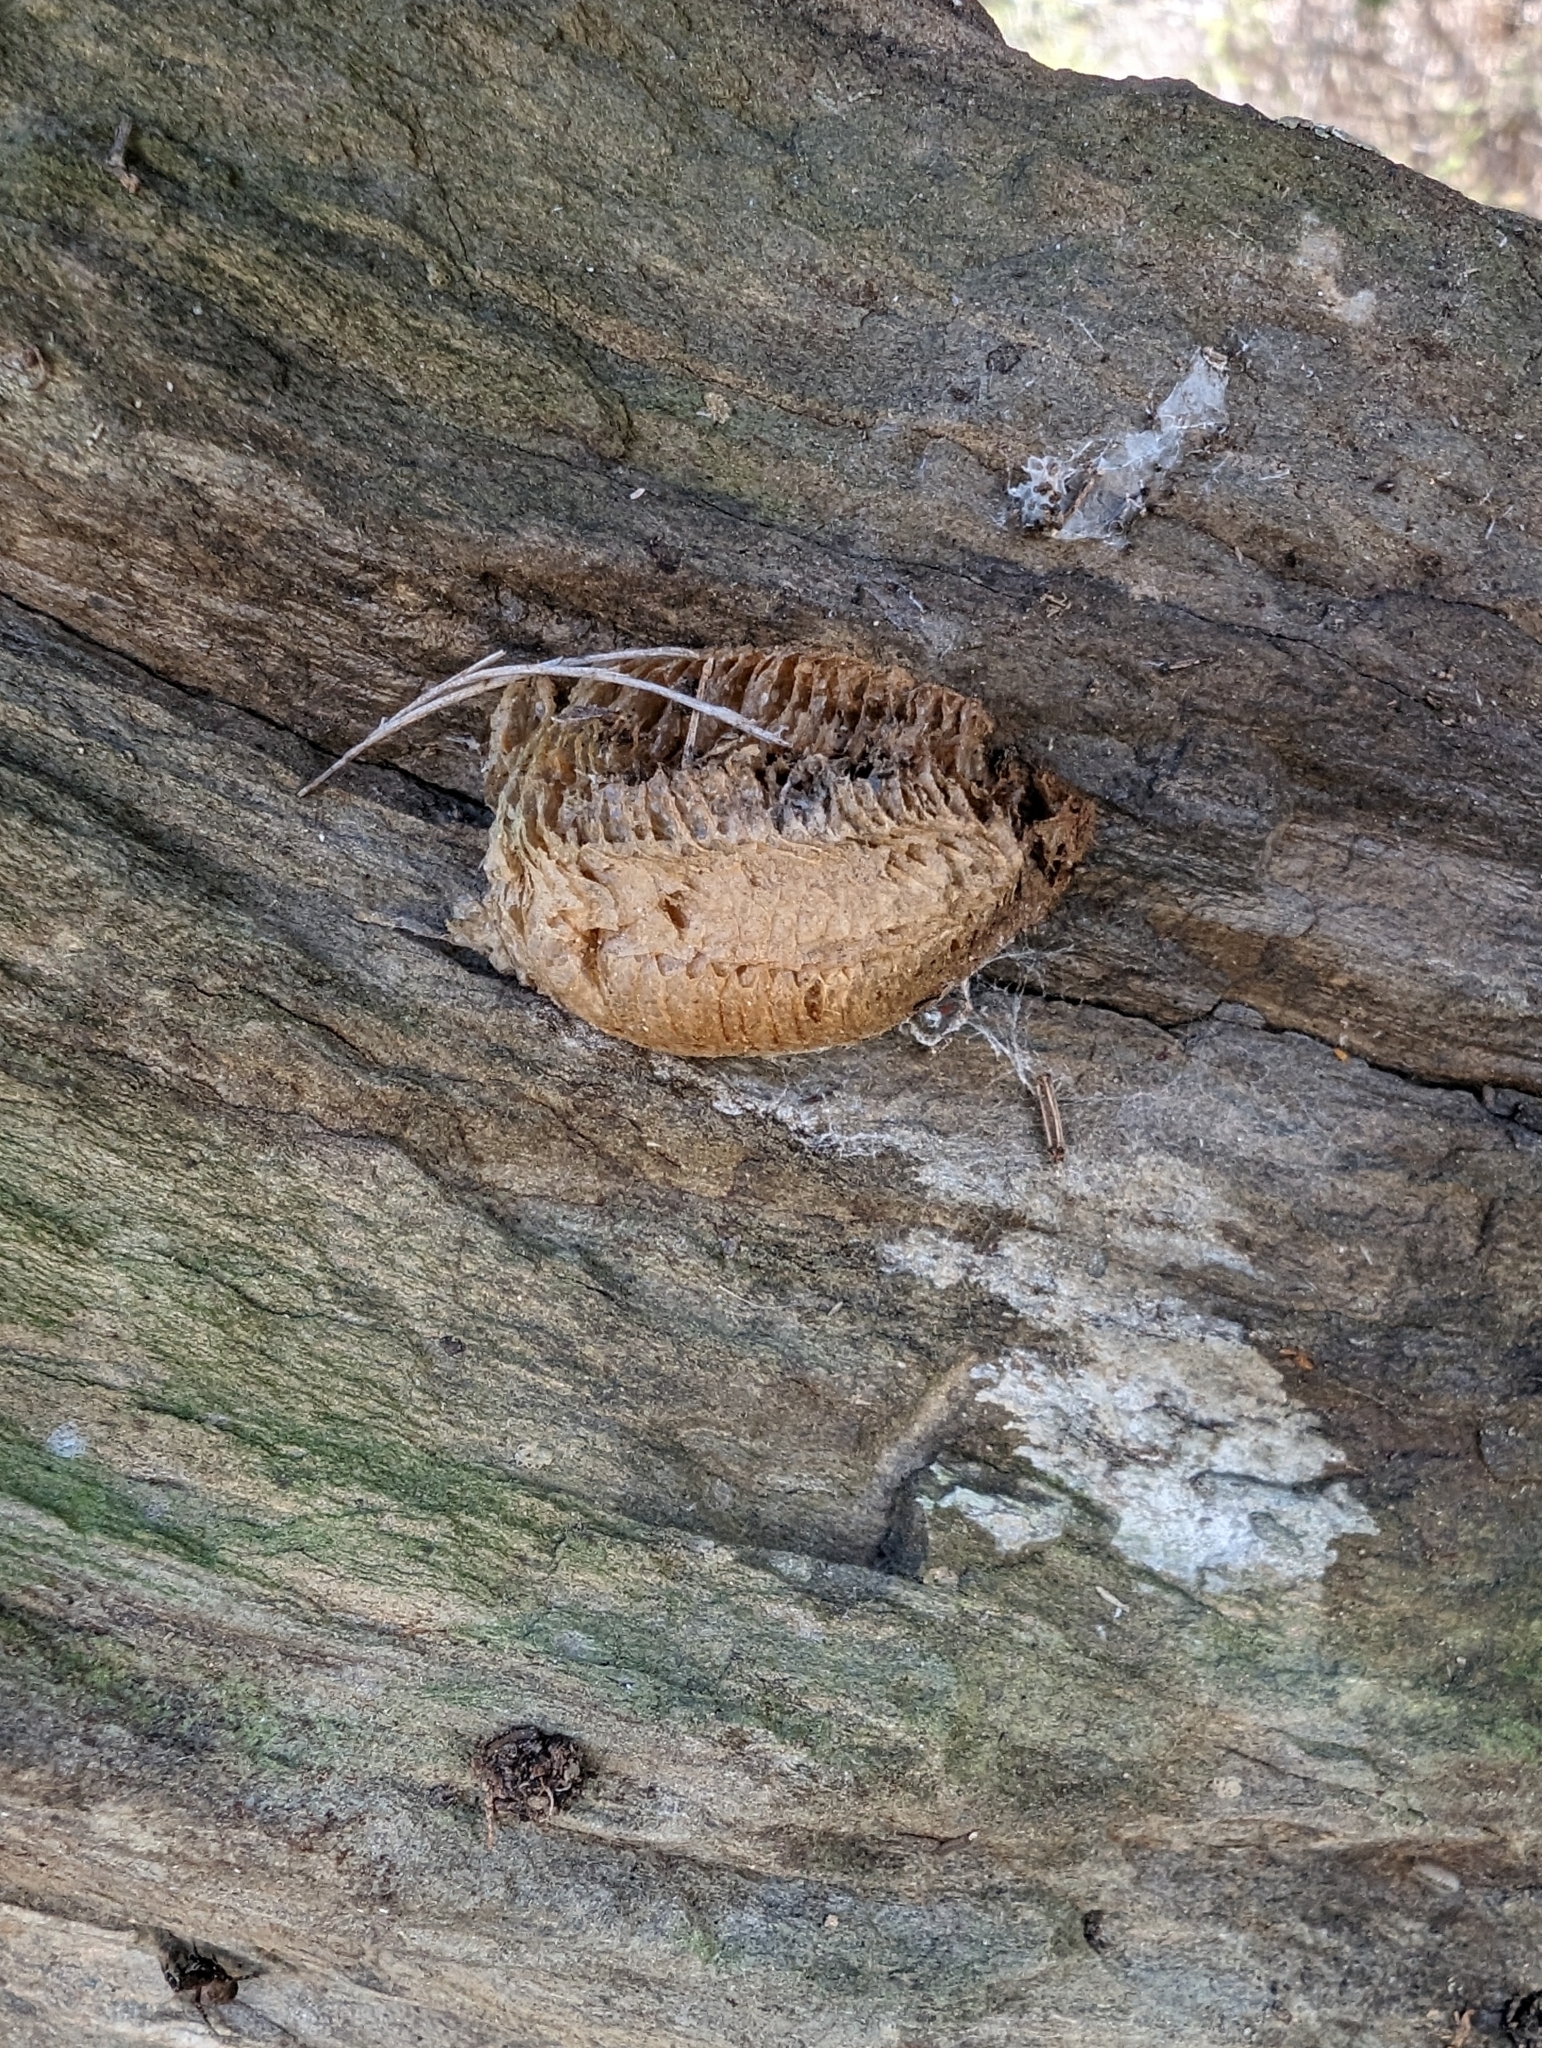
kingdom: Animalia
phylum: Arthropoda
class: Insecta
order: Mantodea
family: Mantidae
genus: Mantis
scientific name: Mantis religiosa
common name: Praying mantis
